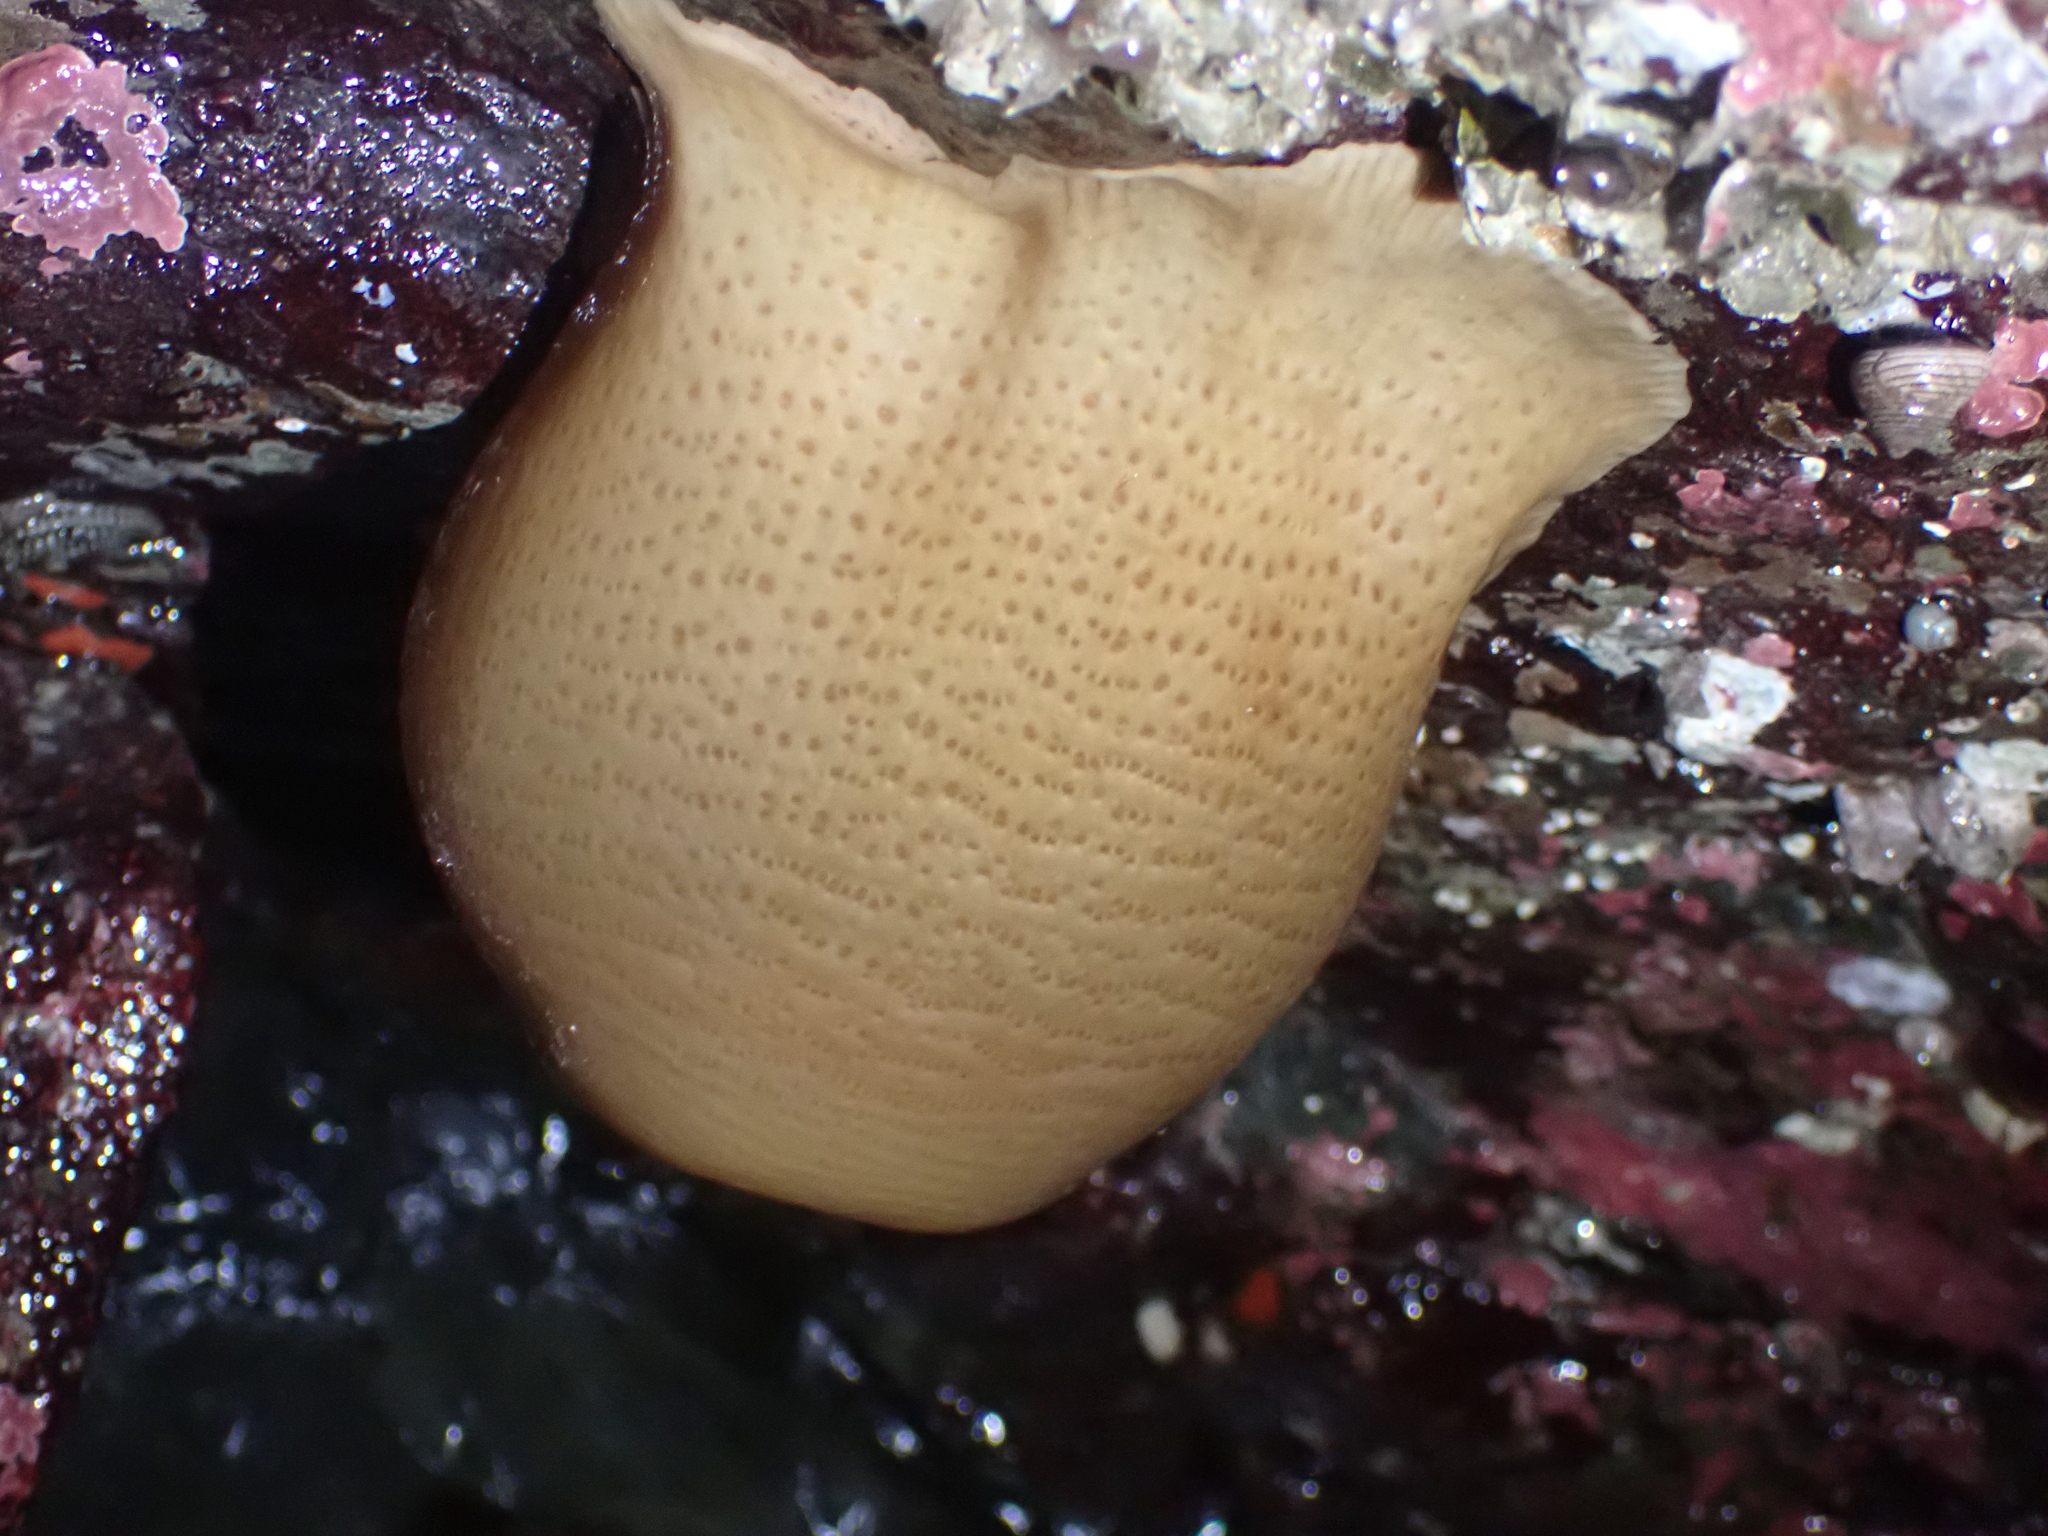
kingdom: Animalia
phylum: Cnidaria
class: Anthozoa
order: Actiniaria
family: Actiniidae
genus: Urticina
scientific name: Urticina grebelnyi
